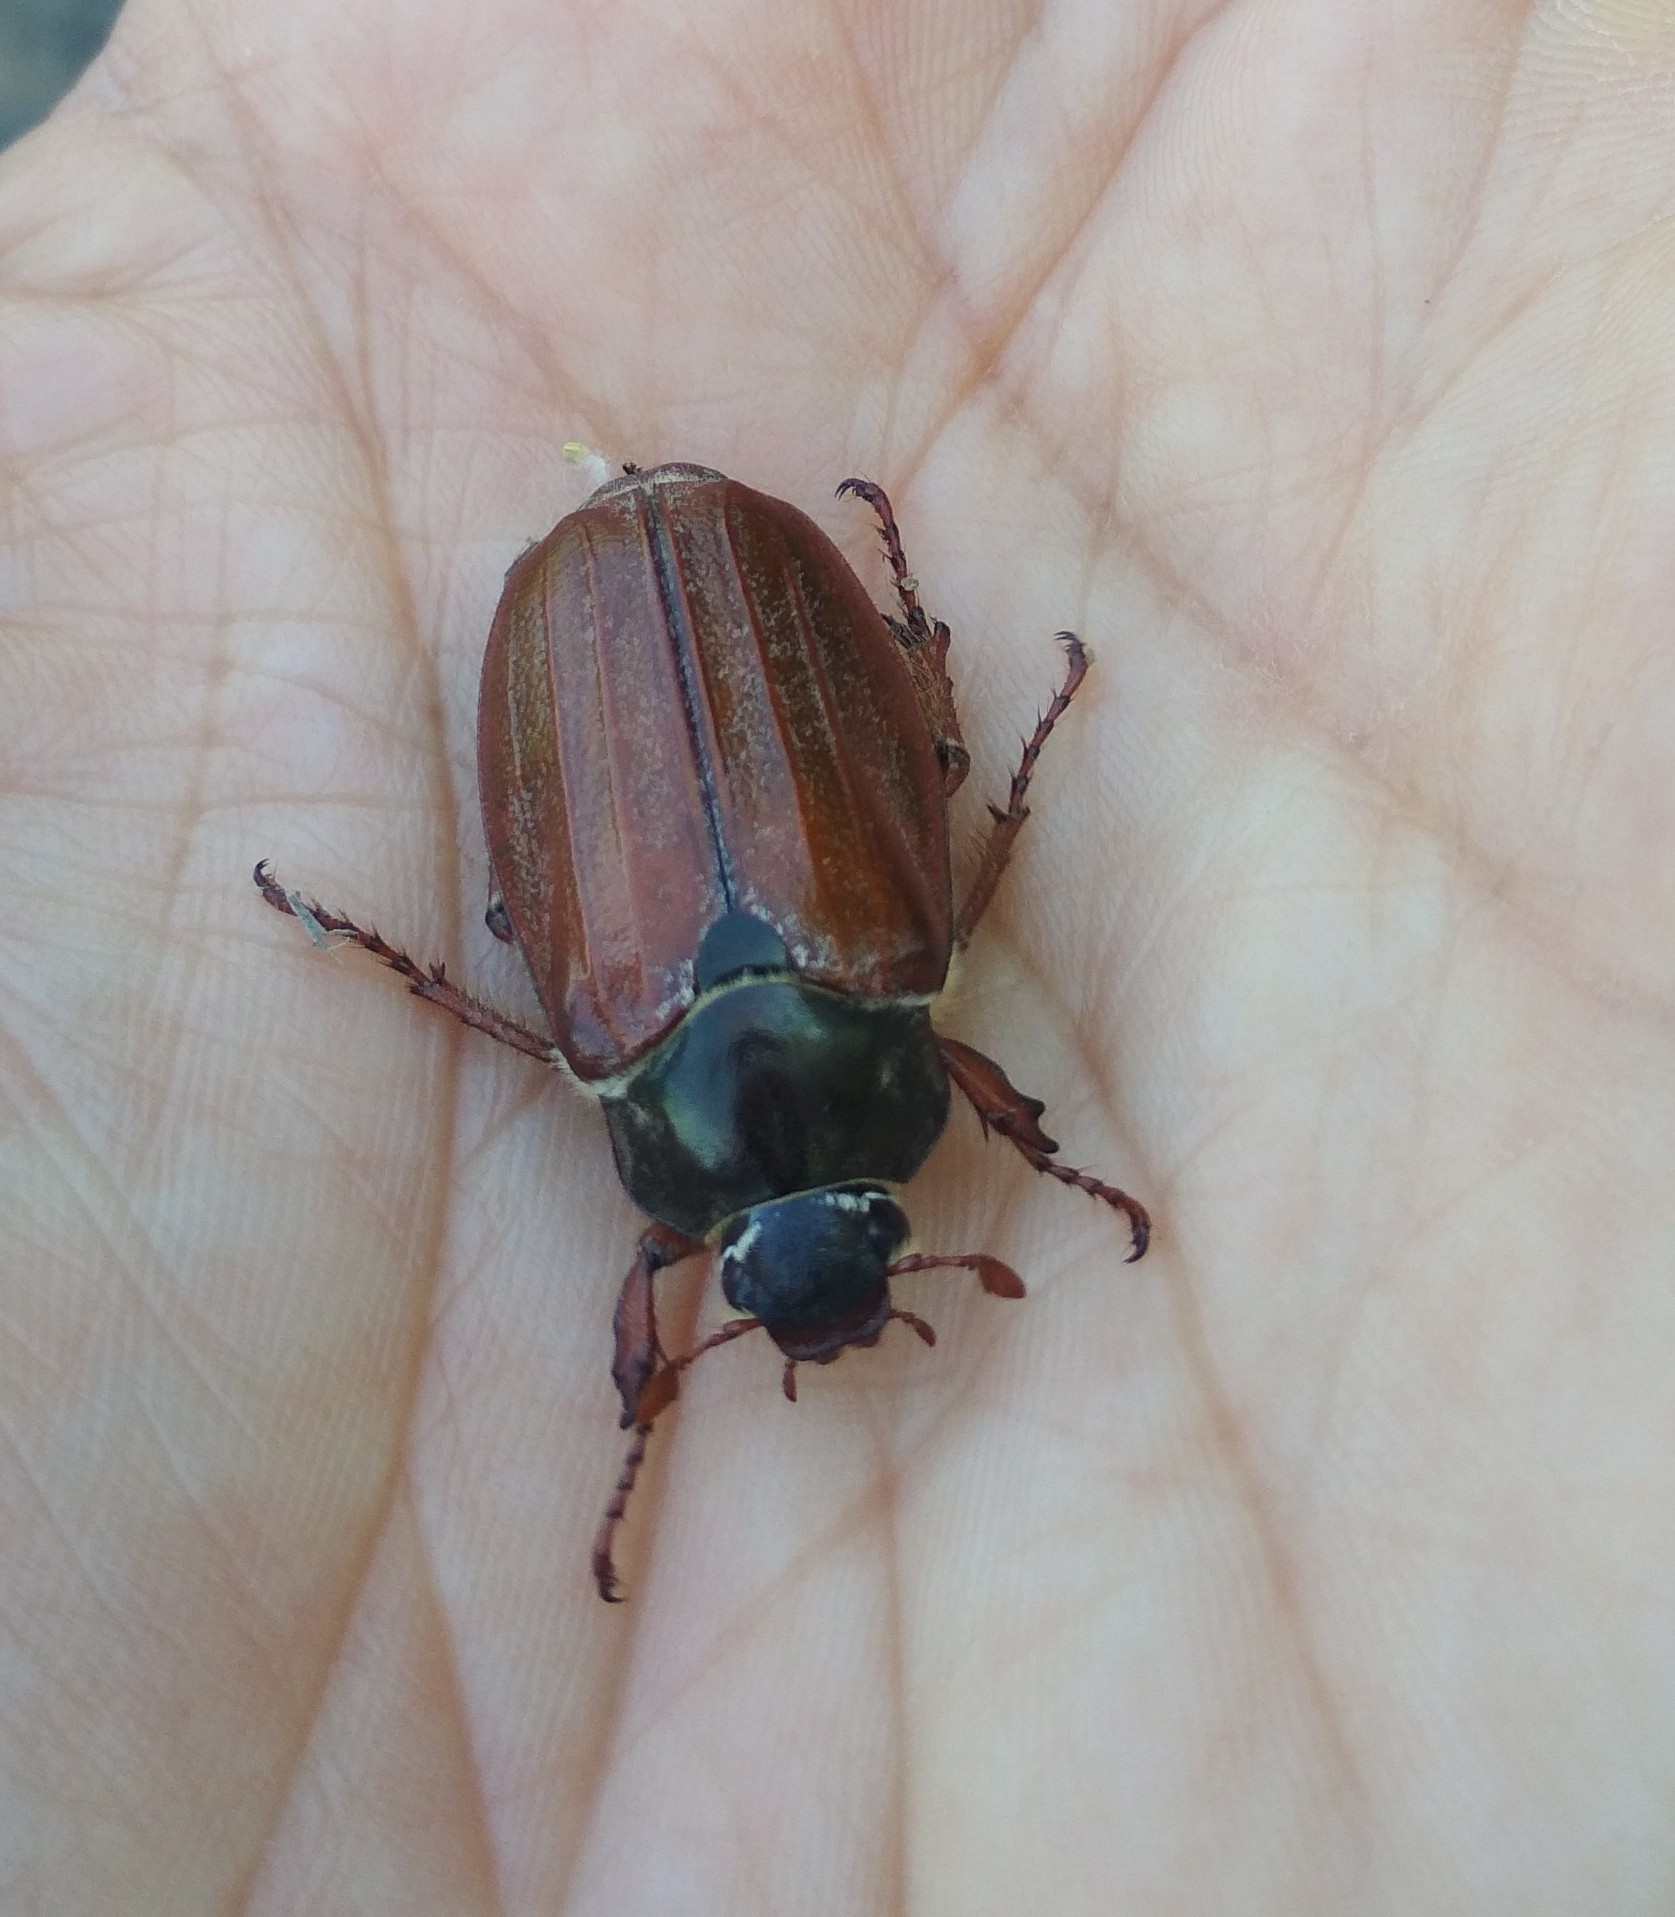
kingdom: Animalia
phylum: Arthropoda
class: Insecta
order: Coleoptera
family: Scarabaeidae
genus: Melolontha
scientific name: Melolontha melolontha
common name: Cockchafer maybeetle
